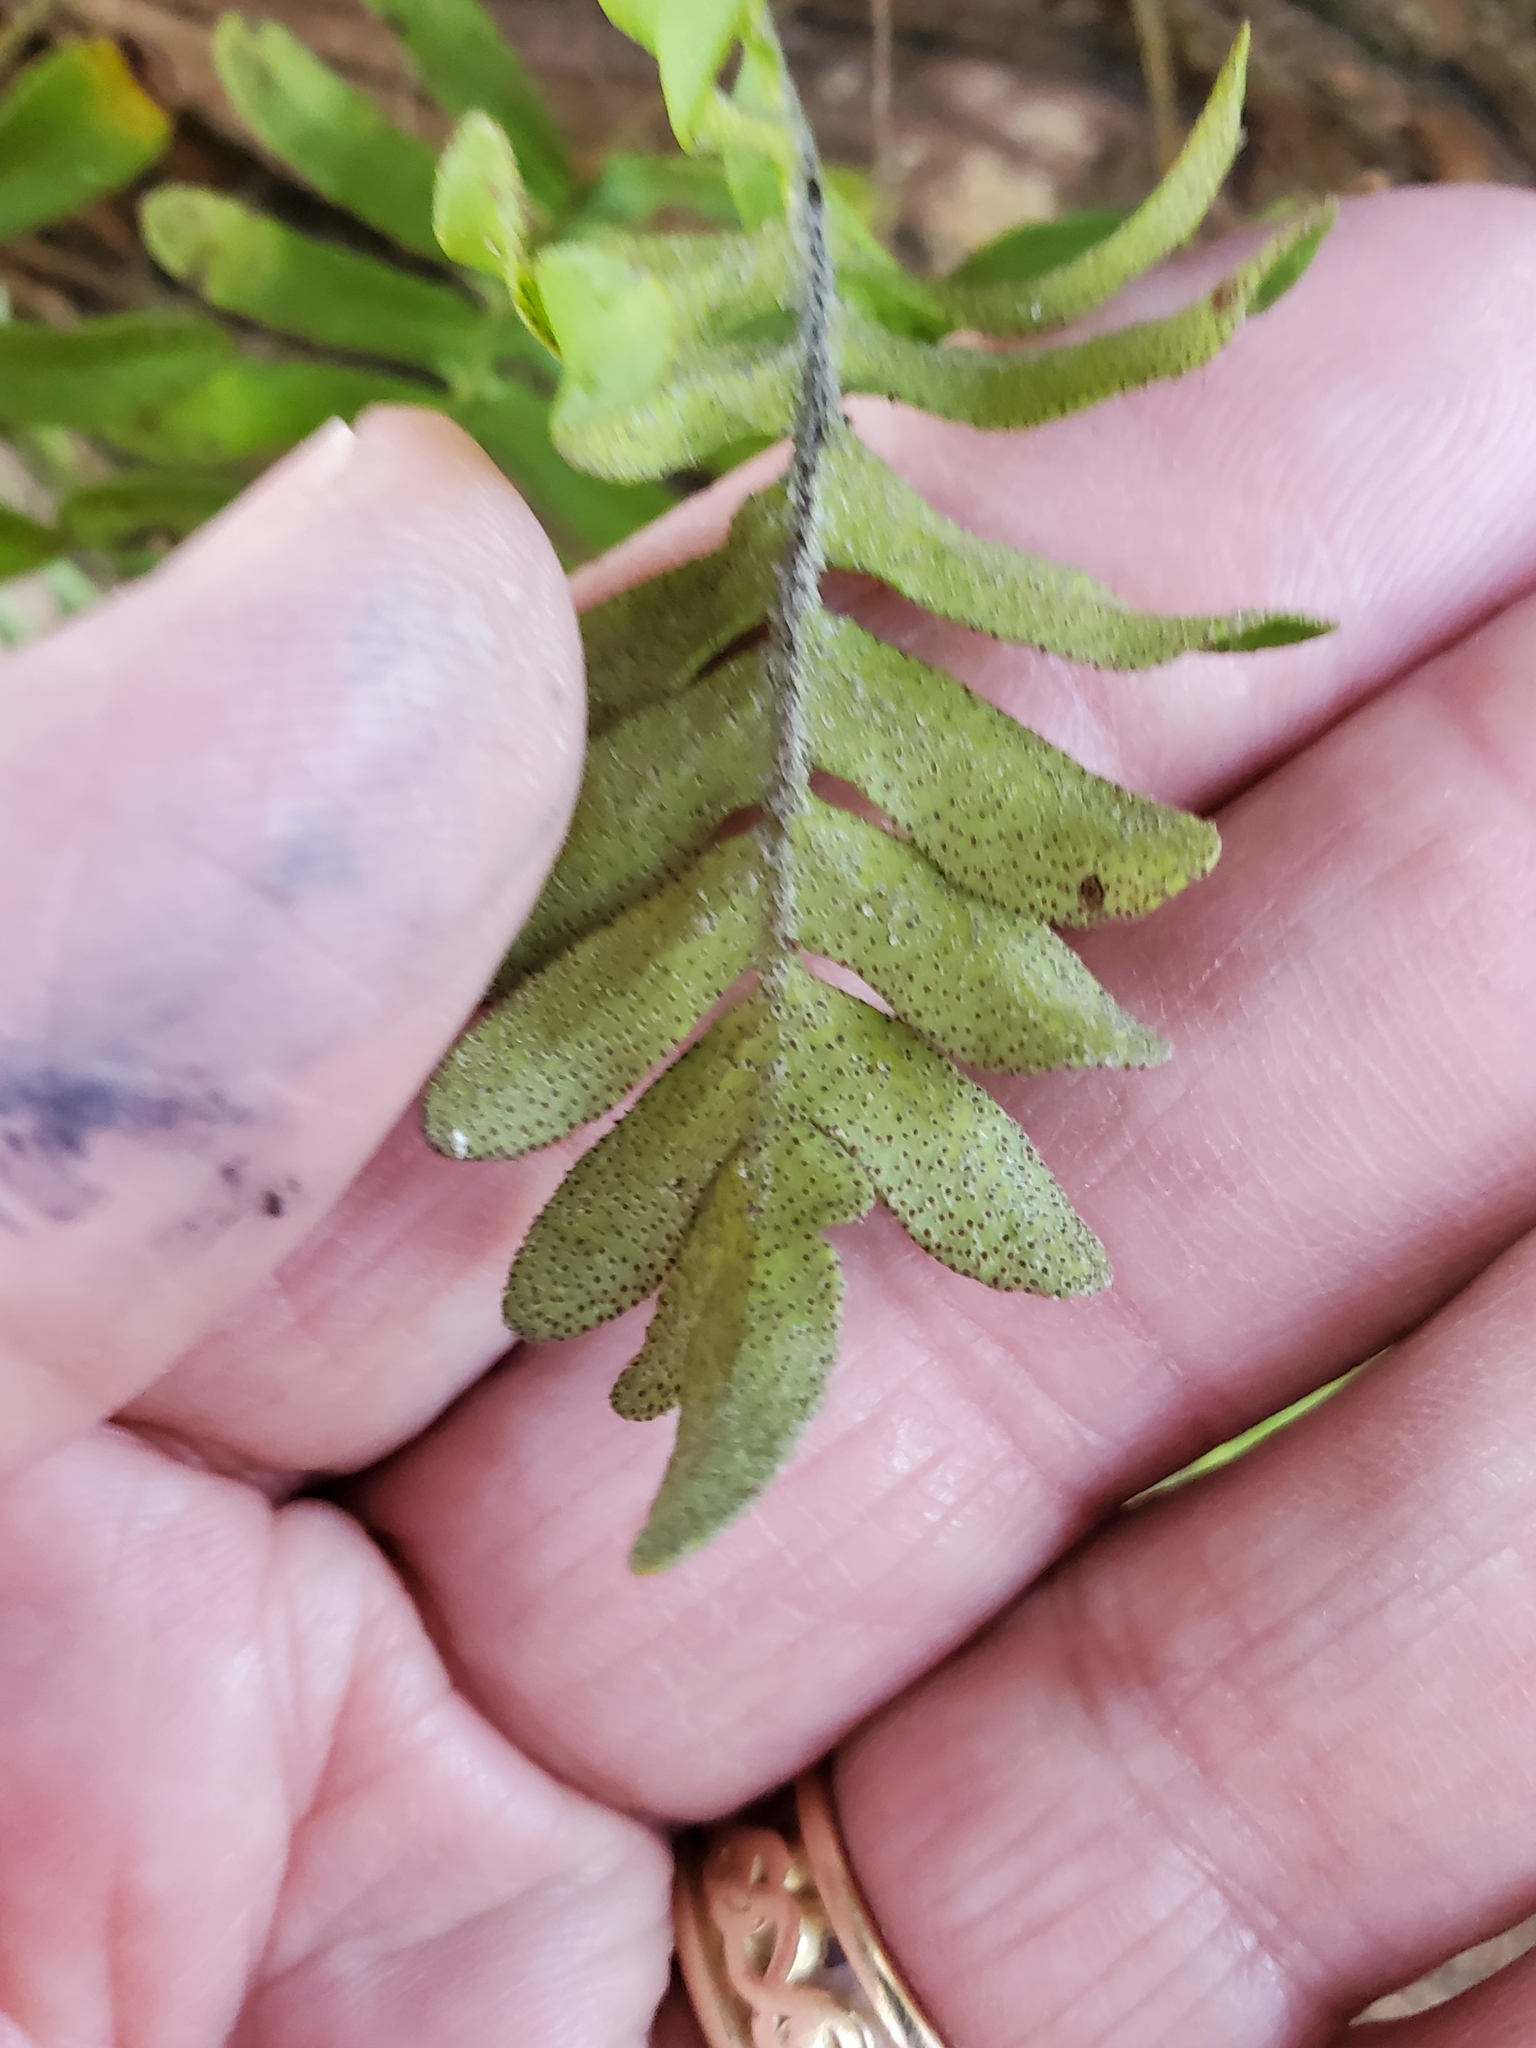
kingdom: Plantae
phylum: Tracheophyta
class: Polypodiopsida
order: Polypodiales
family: Polypodiaceae
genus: Pleopeltis
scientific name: Pleopeltis michauxiana
